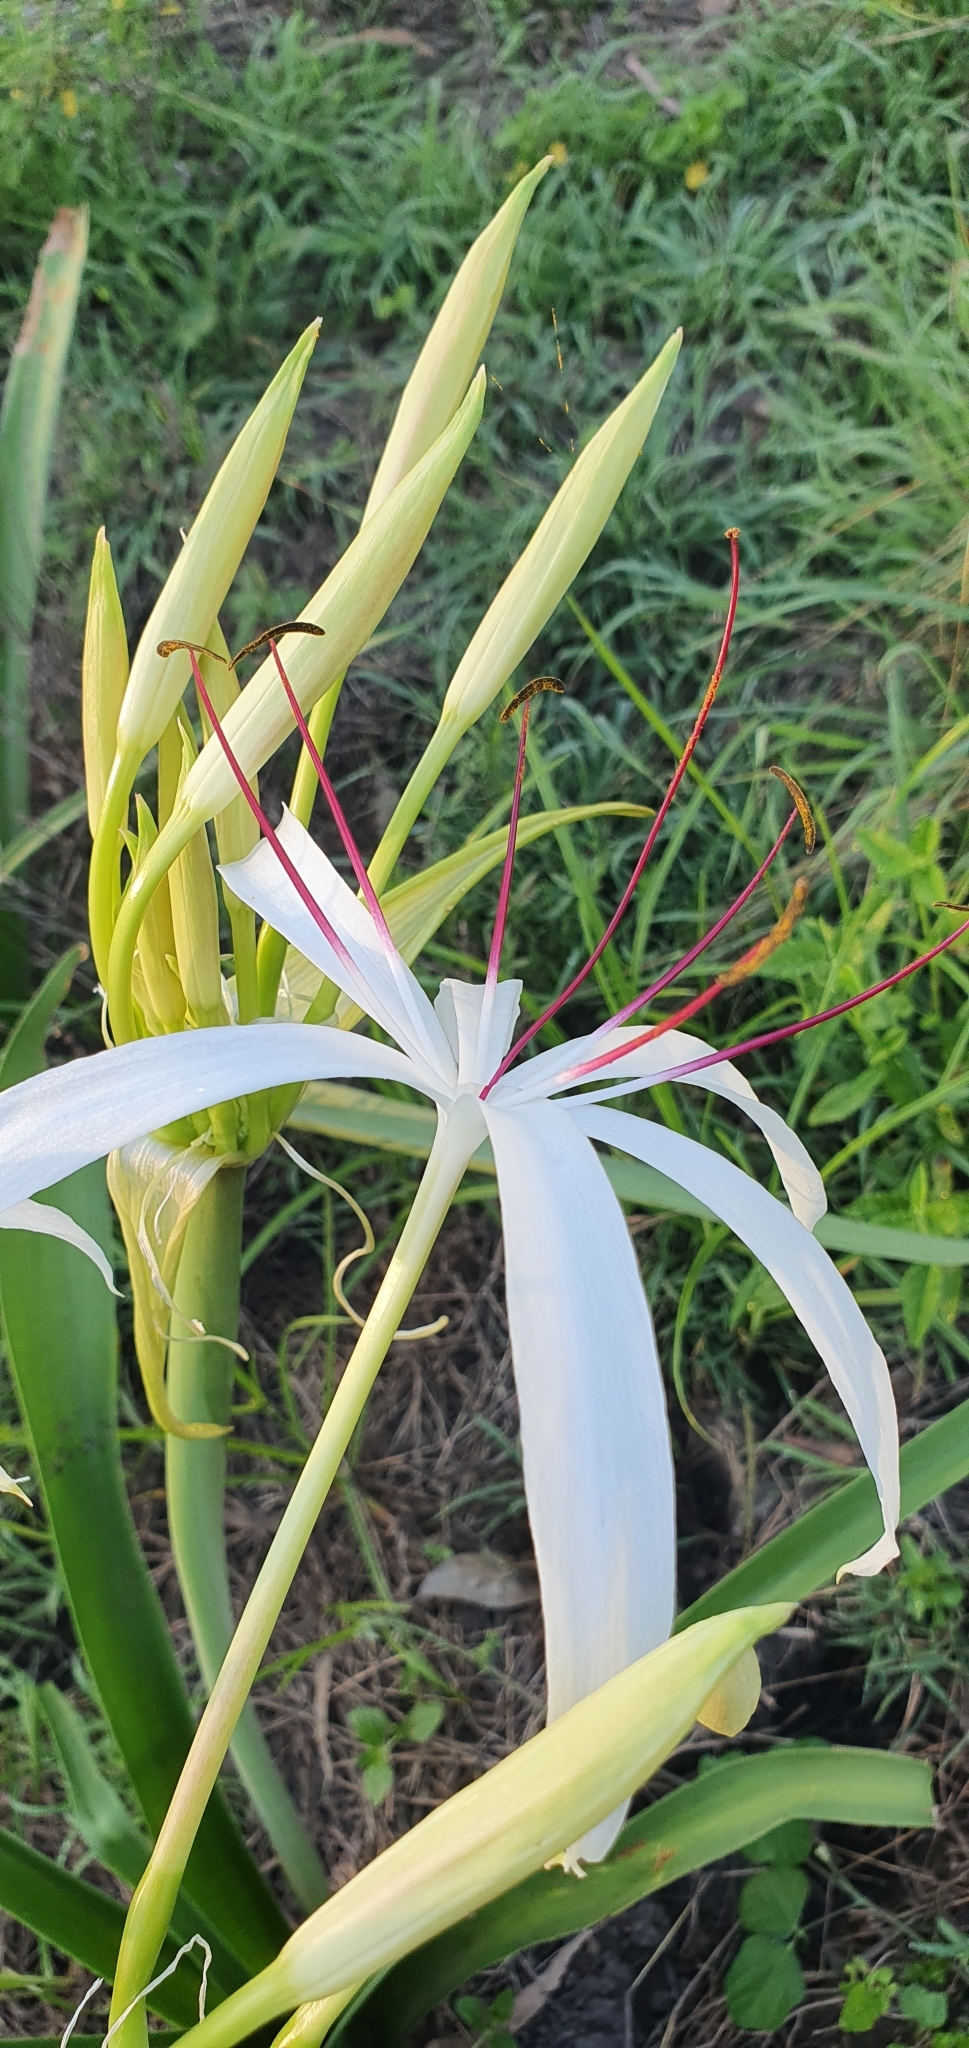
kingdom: Plantae
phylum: Tracheophyta
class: Liliopsida
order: Asparagales
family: Amaryllidaceae
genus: Crinum
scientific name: Crinum flaccidum
